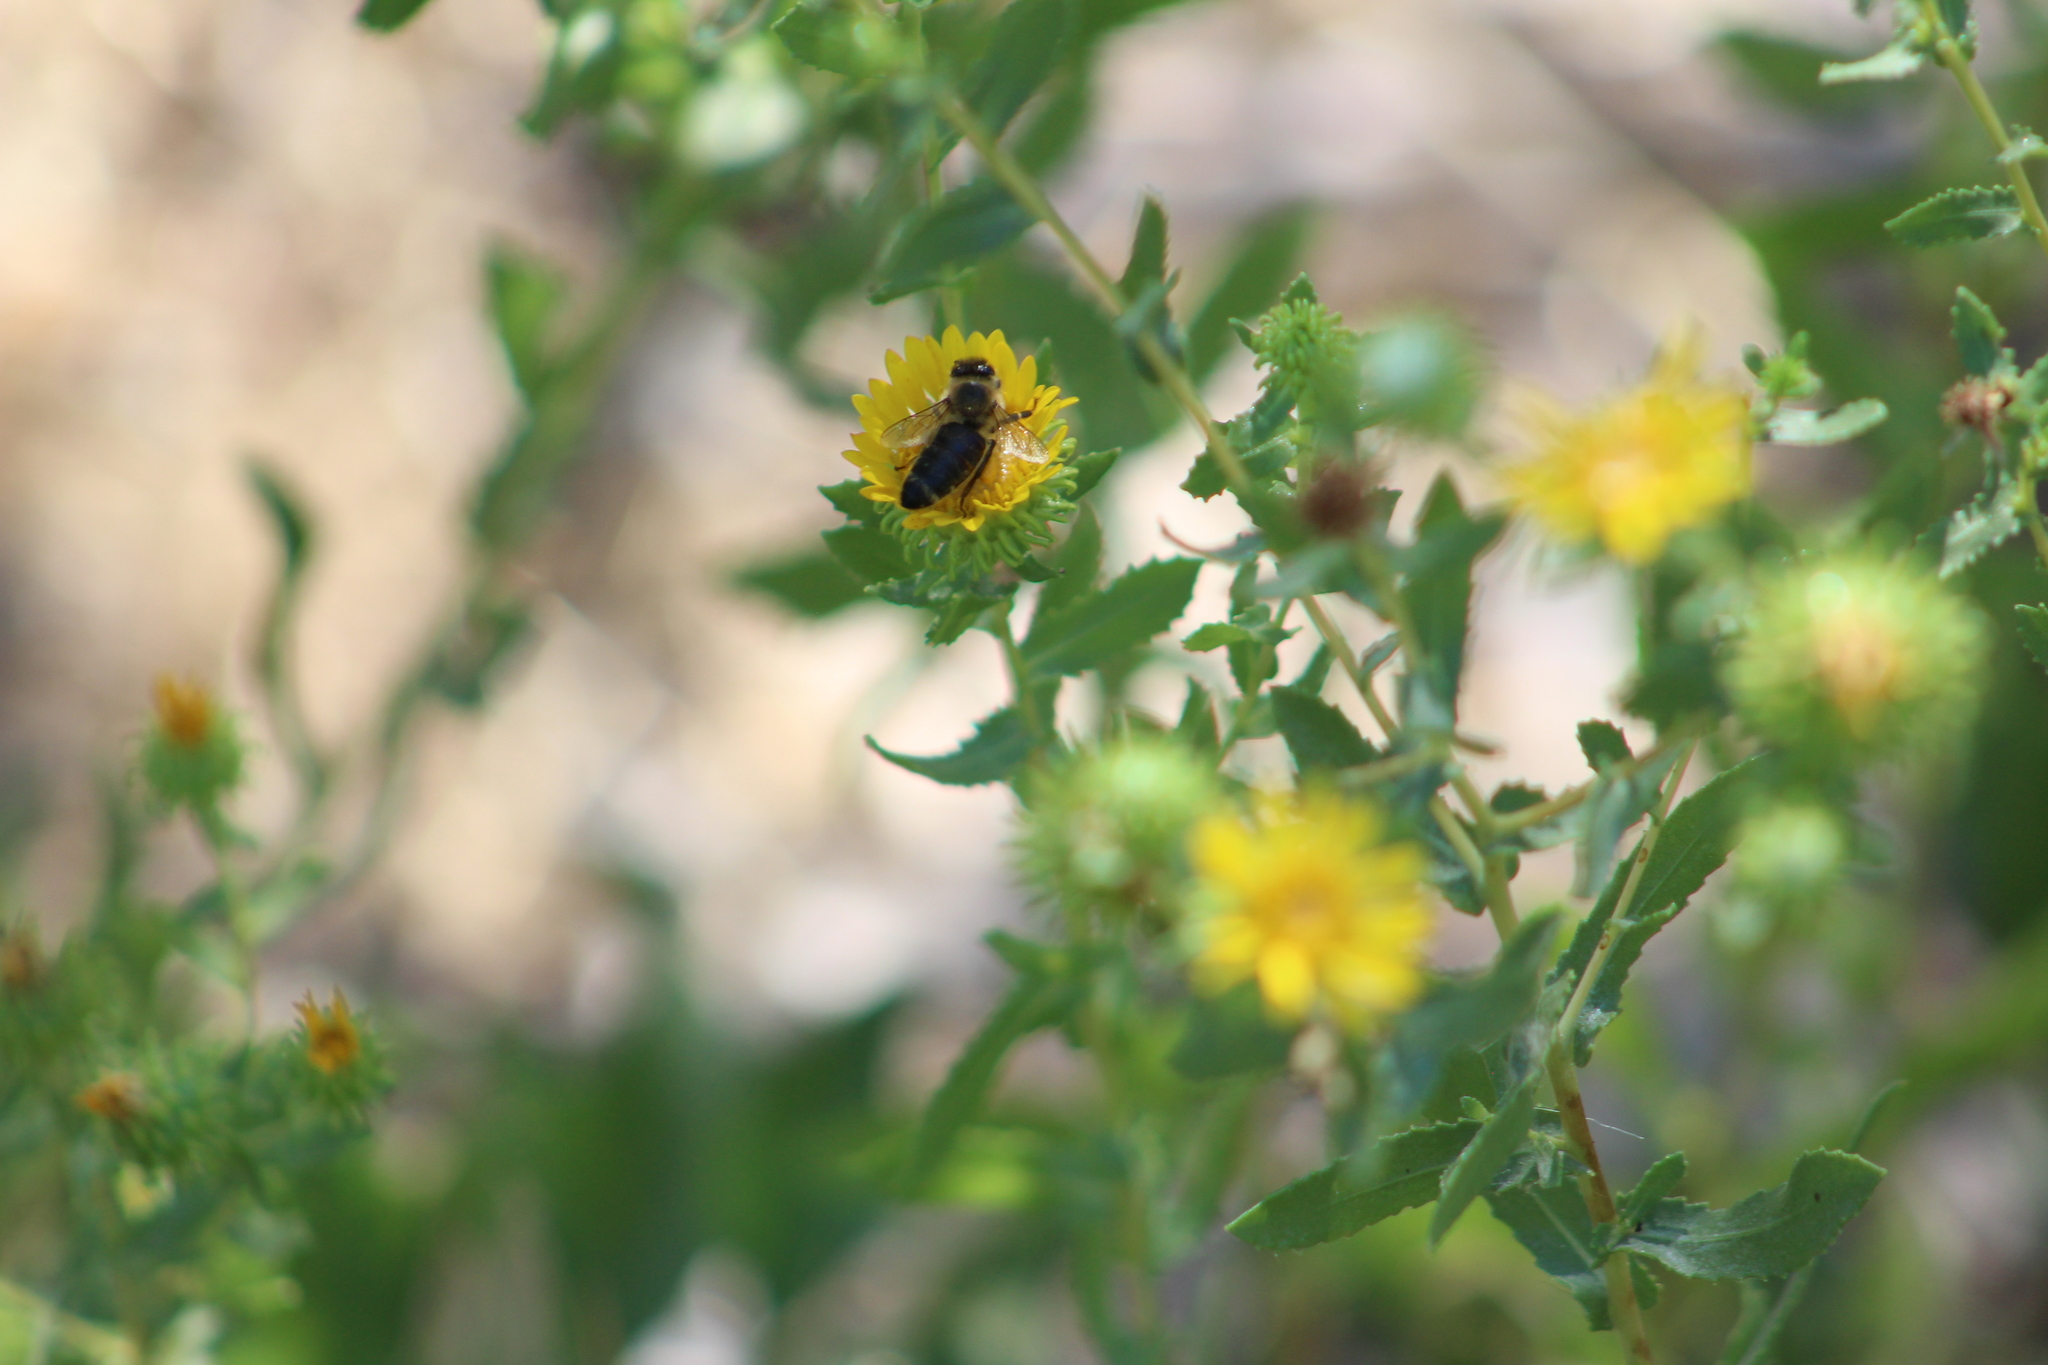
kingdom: Animalia
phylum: Arthropoda
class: Insecta
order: Hymenoptera
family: Apidae
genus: Apis
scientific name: Apis mellifera
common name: Honey bee
